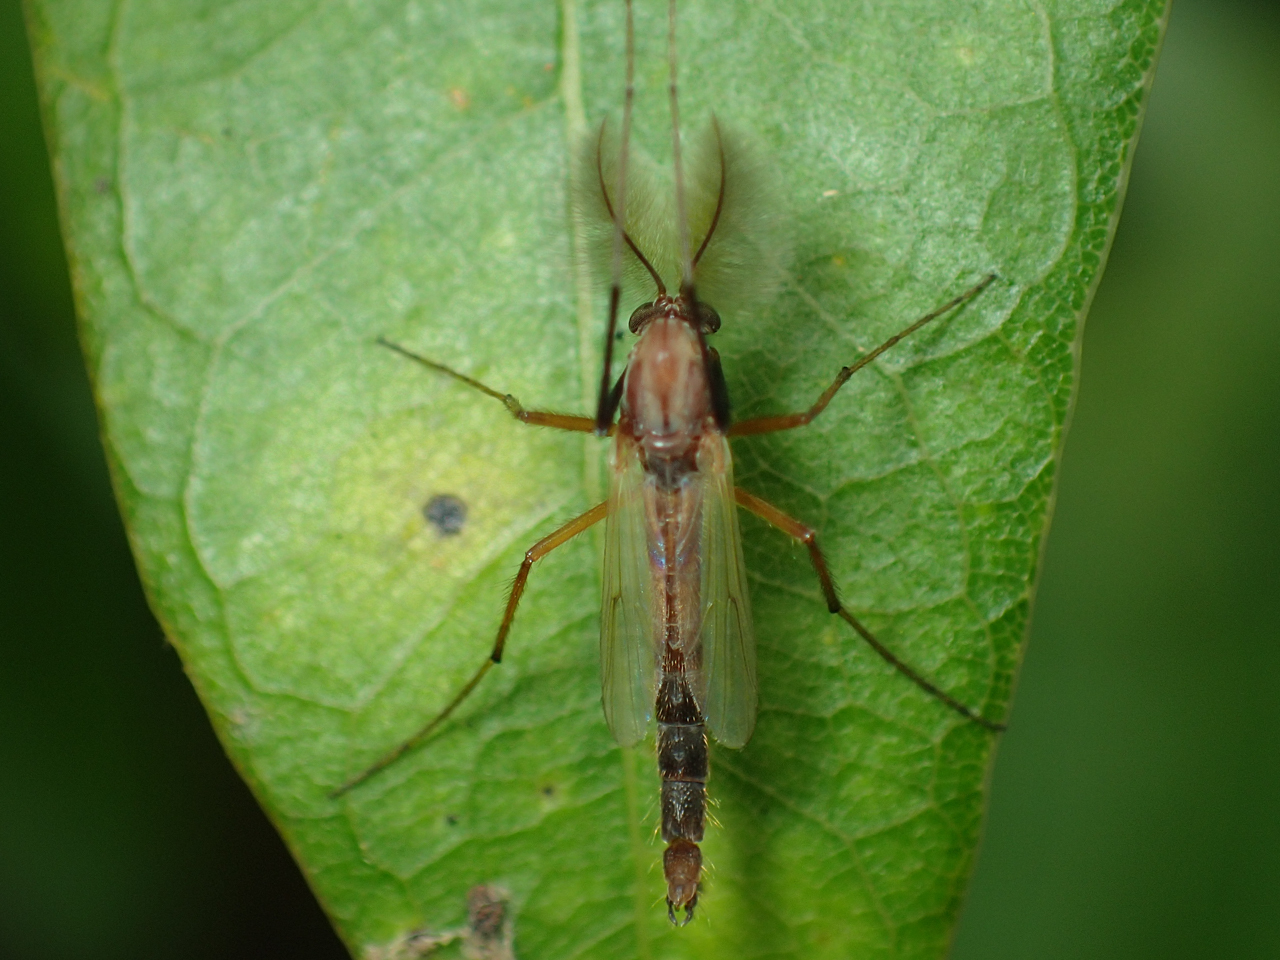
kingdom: Animalia
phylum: Arthropoda
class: Insecta
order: Diptera
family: Chironomidae
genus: Glyptotendipes
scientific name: Glyptotendipes testaceus
